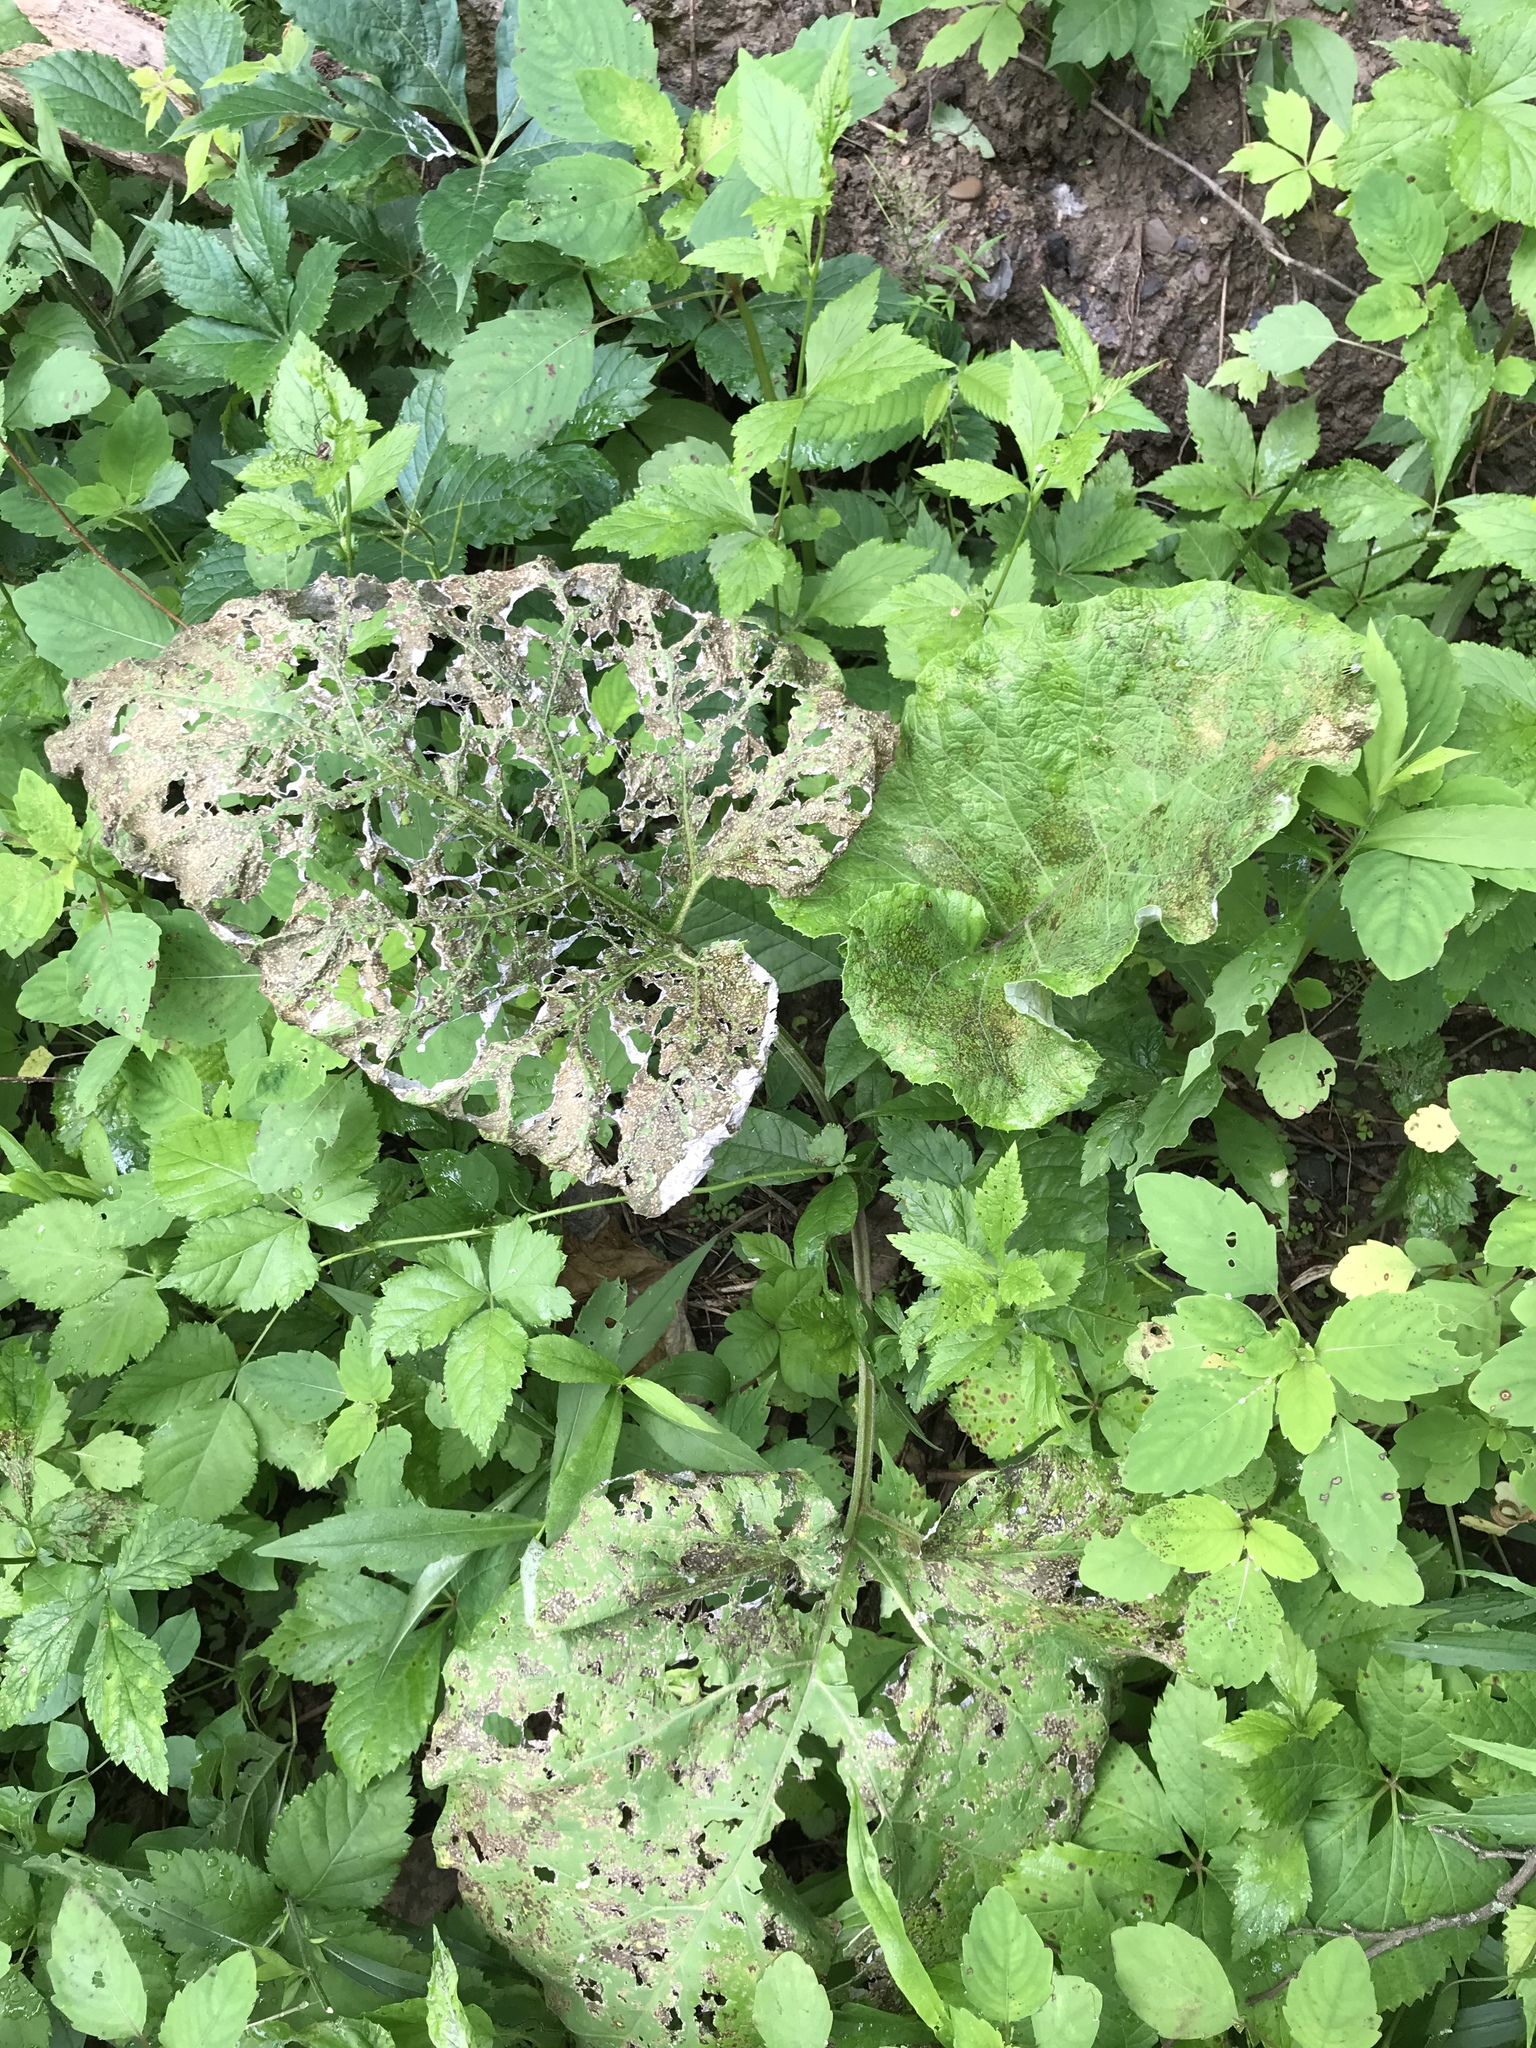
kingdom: Plantae
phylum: Tracheophyta
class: Magnoliopsida
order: Asterales
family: Asteraceae
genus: Arctium
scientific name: Arctium
